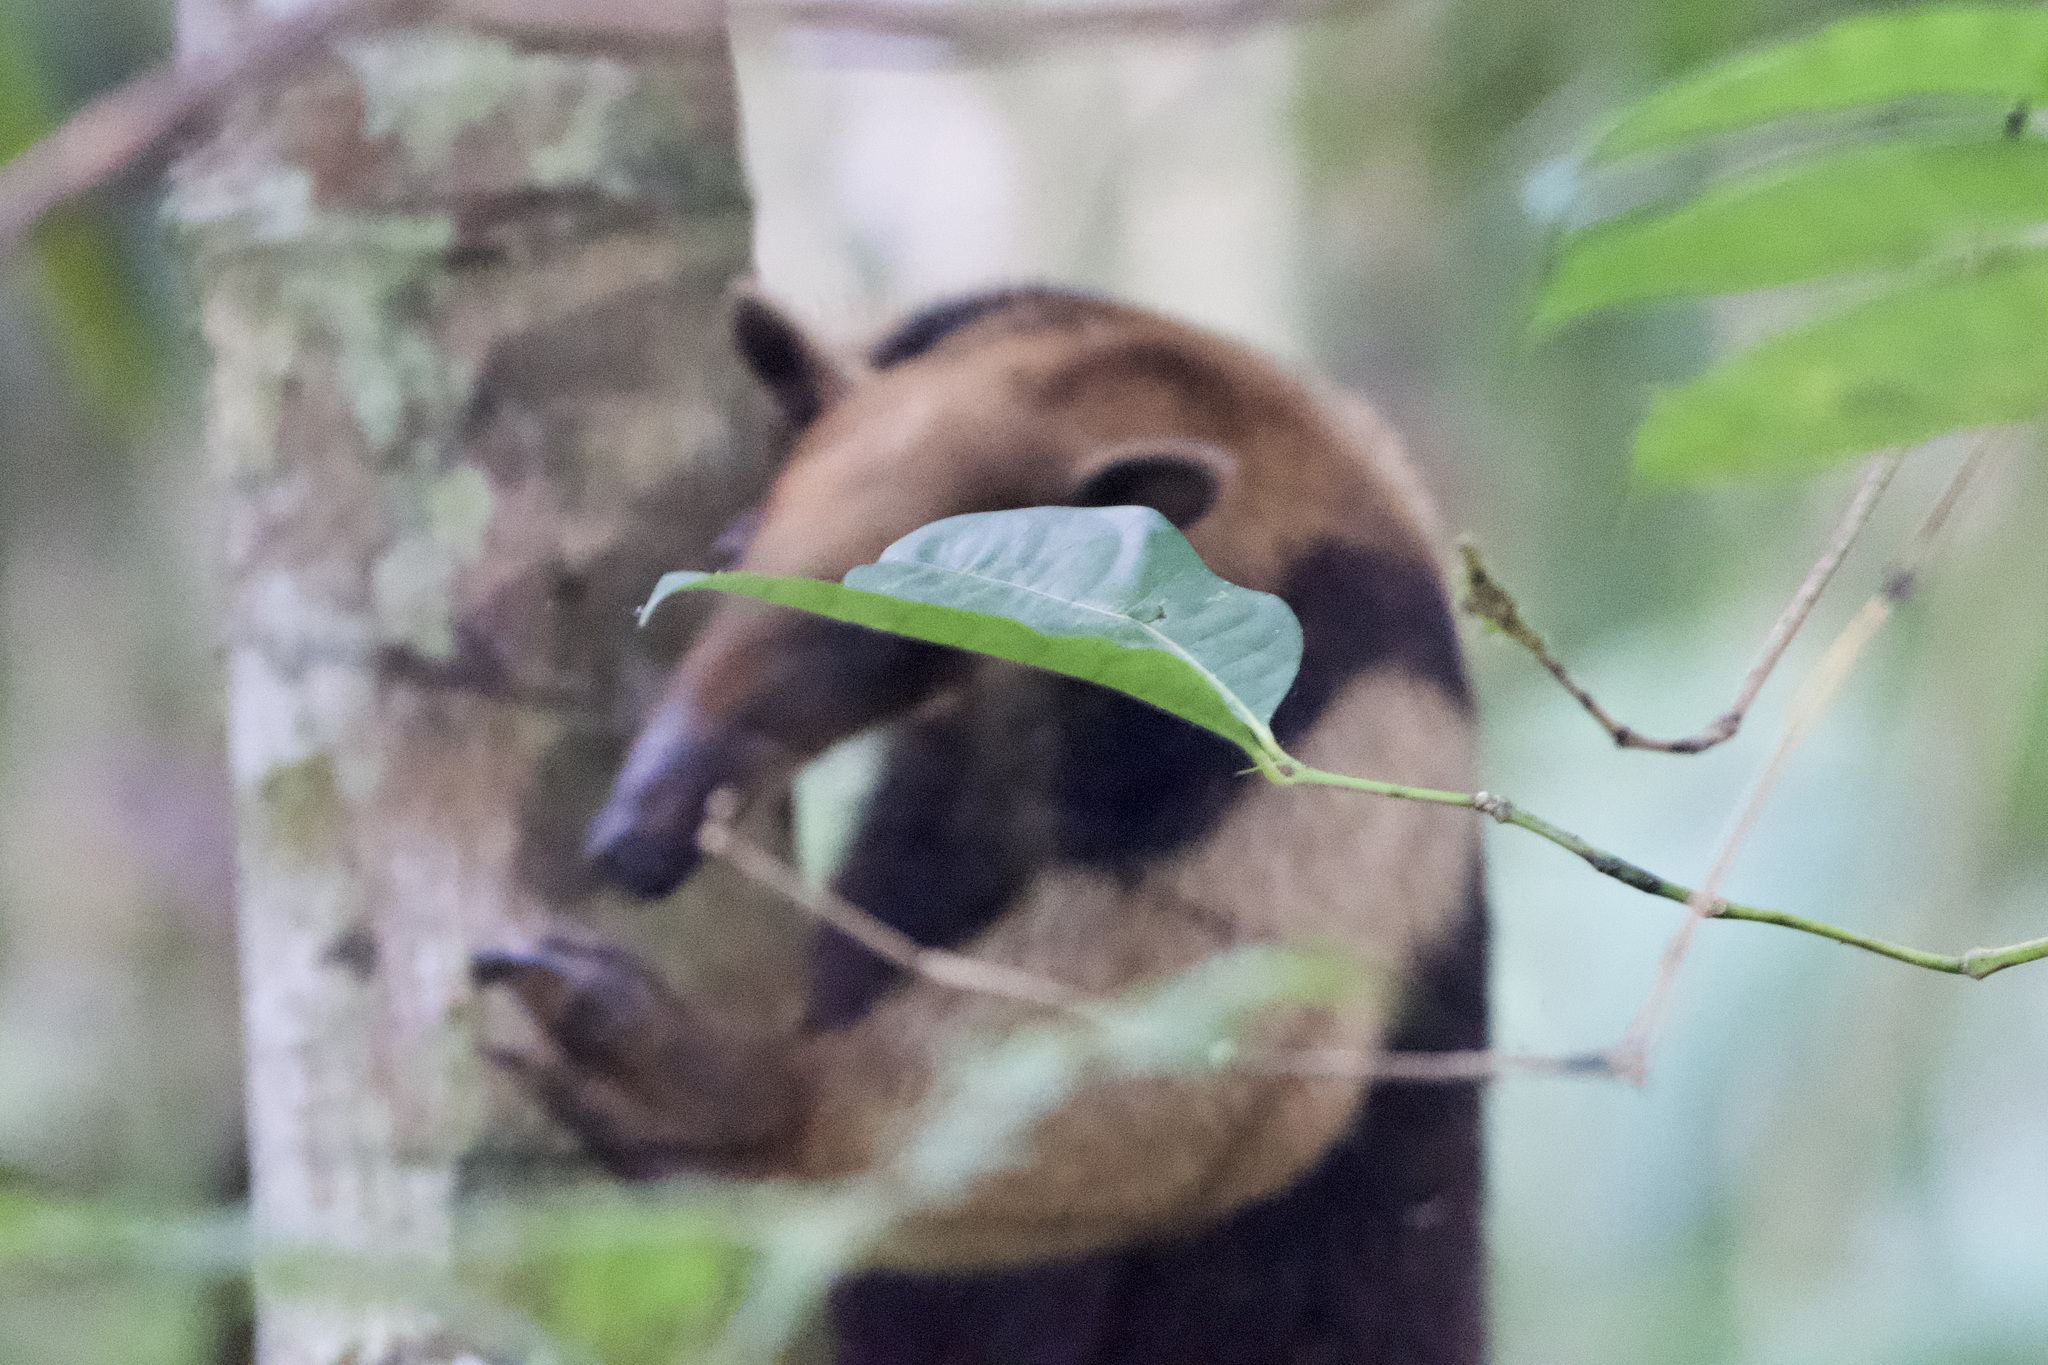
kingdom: Animalia
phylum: Chordata
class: Mammalia
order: Pilosa
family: Myrmecophagidae
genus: Tamandua
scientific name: Tamandua mexicana
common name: Northern tamandua
